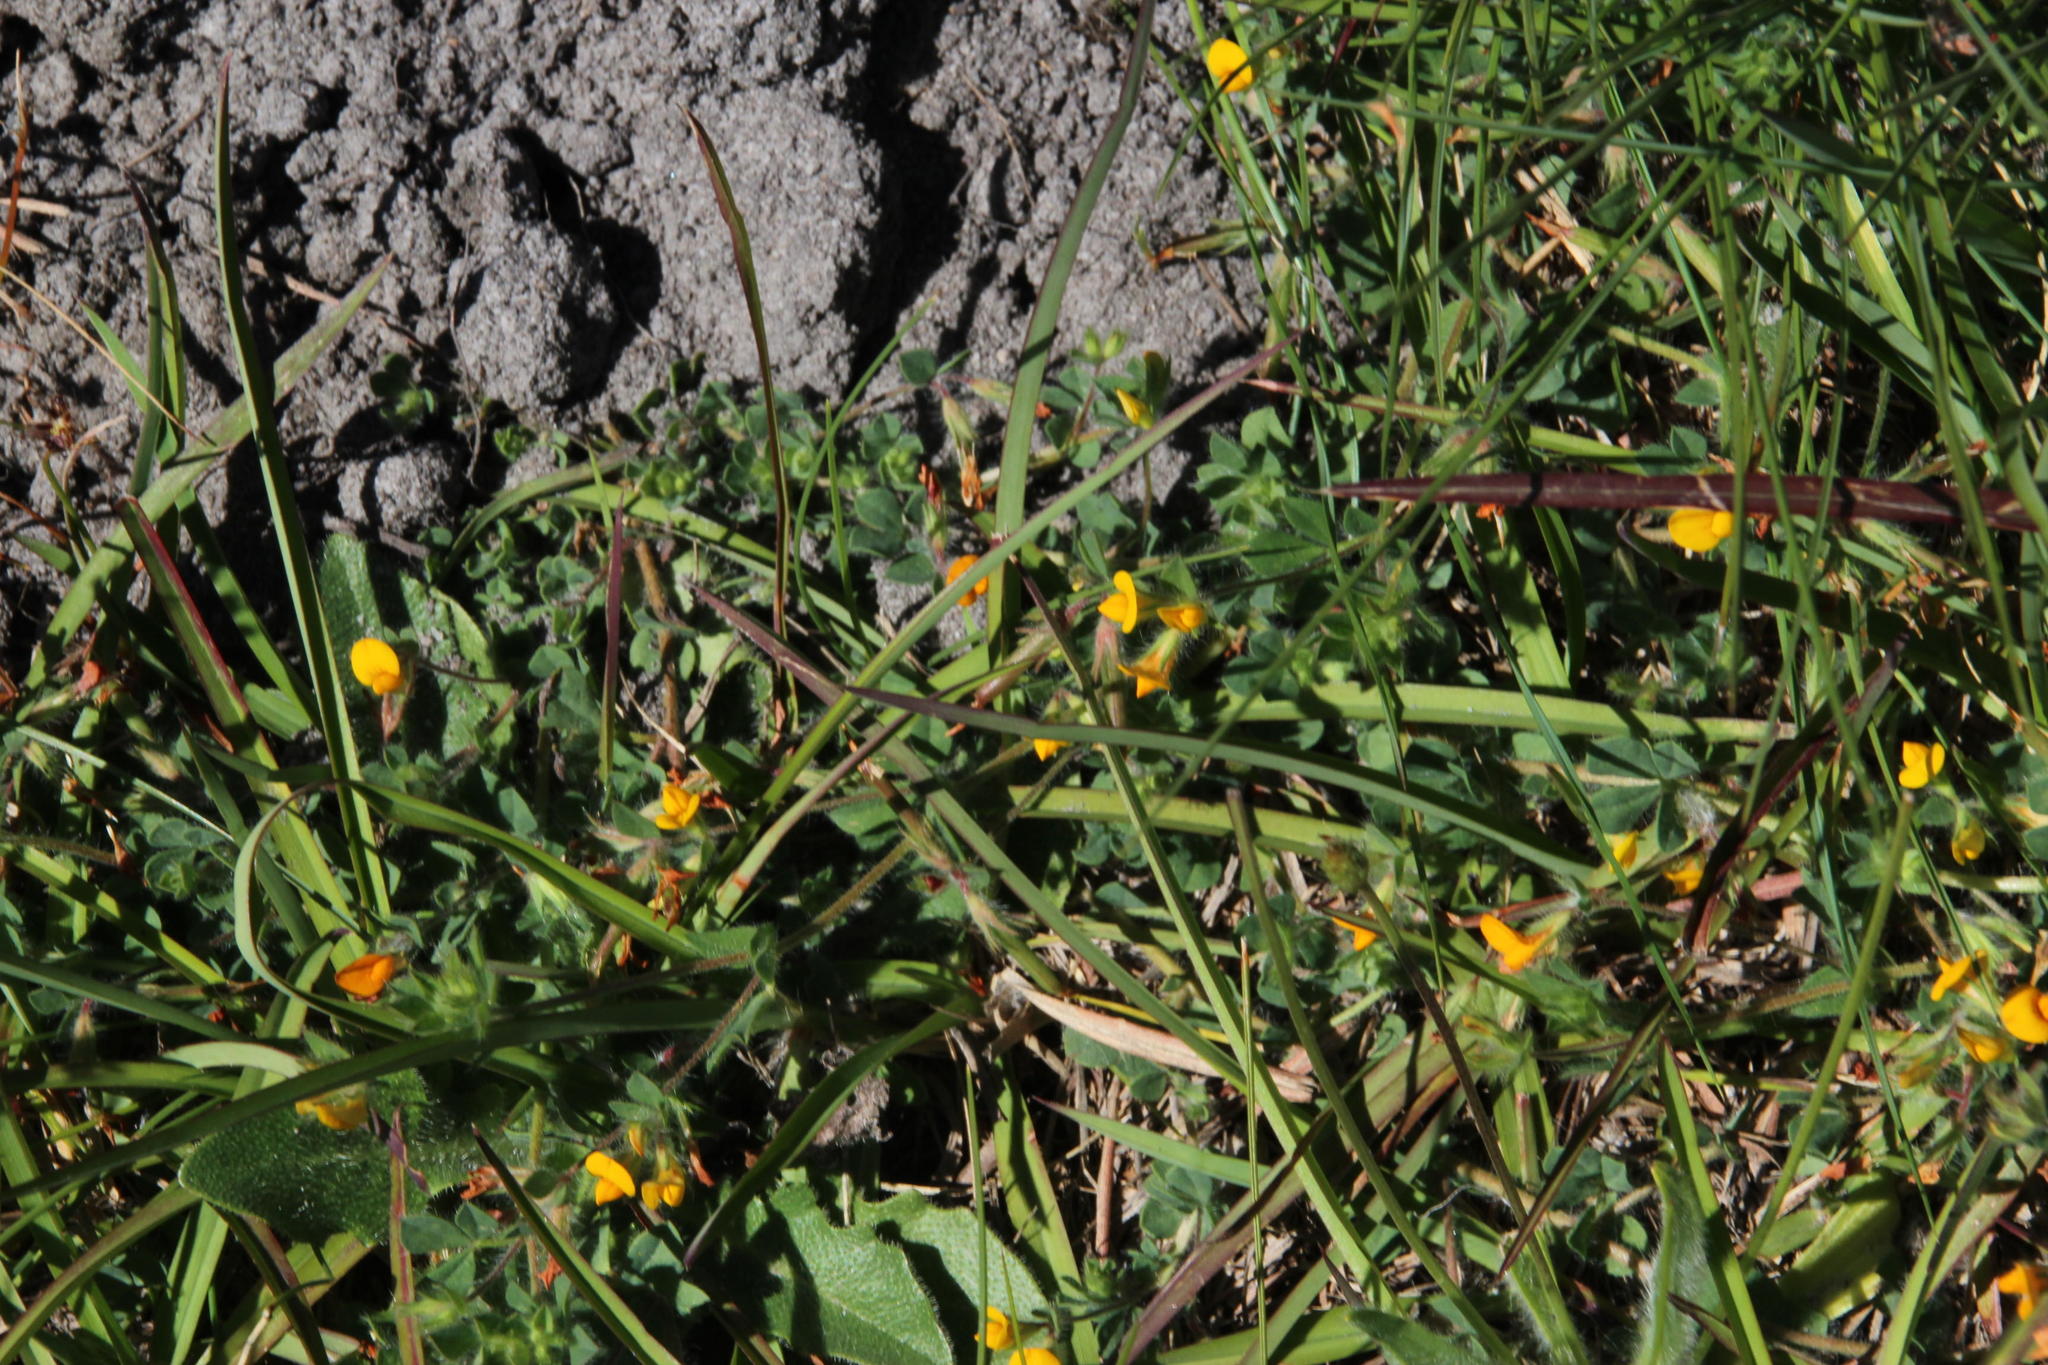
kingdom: Plantae
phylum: Tracheophyta
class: Magnoliopsida
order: Fabales
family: Fabaceae
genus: Lotus
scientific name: Lotus subbiflorus
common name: Hairy bird's-foot trefoil
